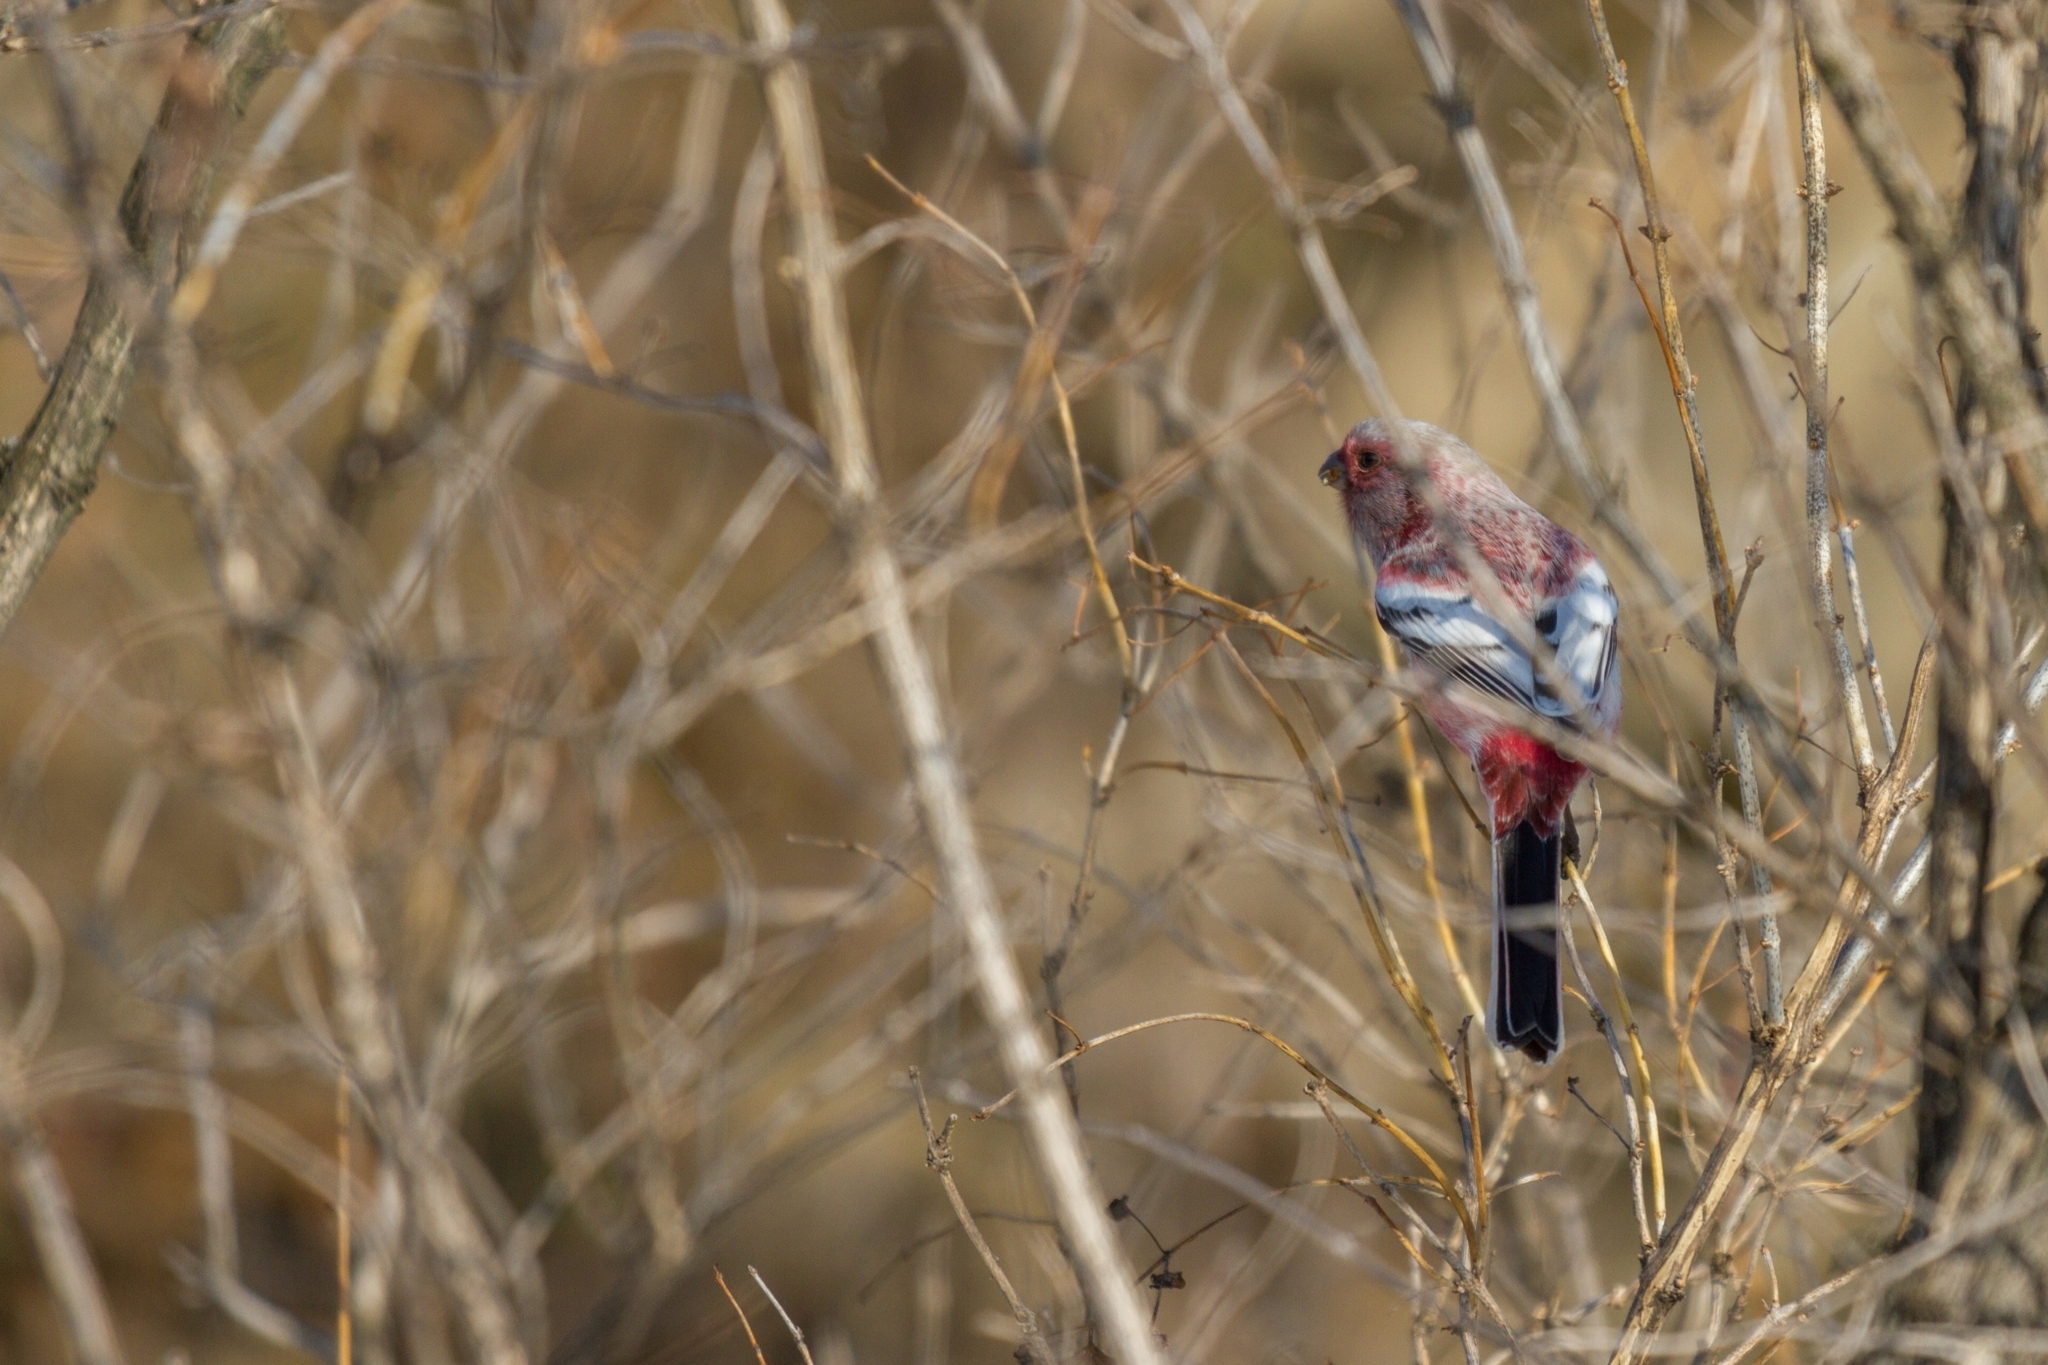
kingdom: Animalia
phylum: Chordata
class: Aves
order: Passeriformes
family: Fringillidae
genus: Carpodacus
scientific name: Carpodacus sibiricus
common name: Long-tailed rosefinch
